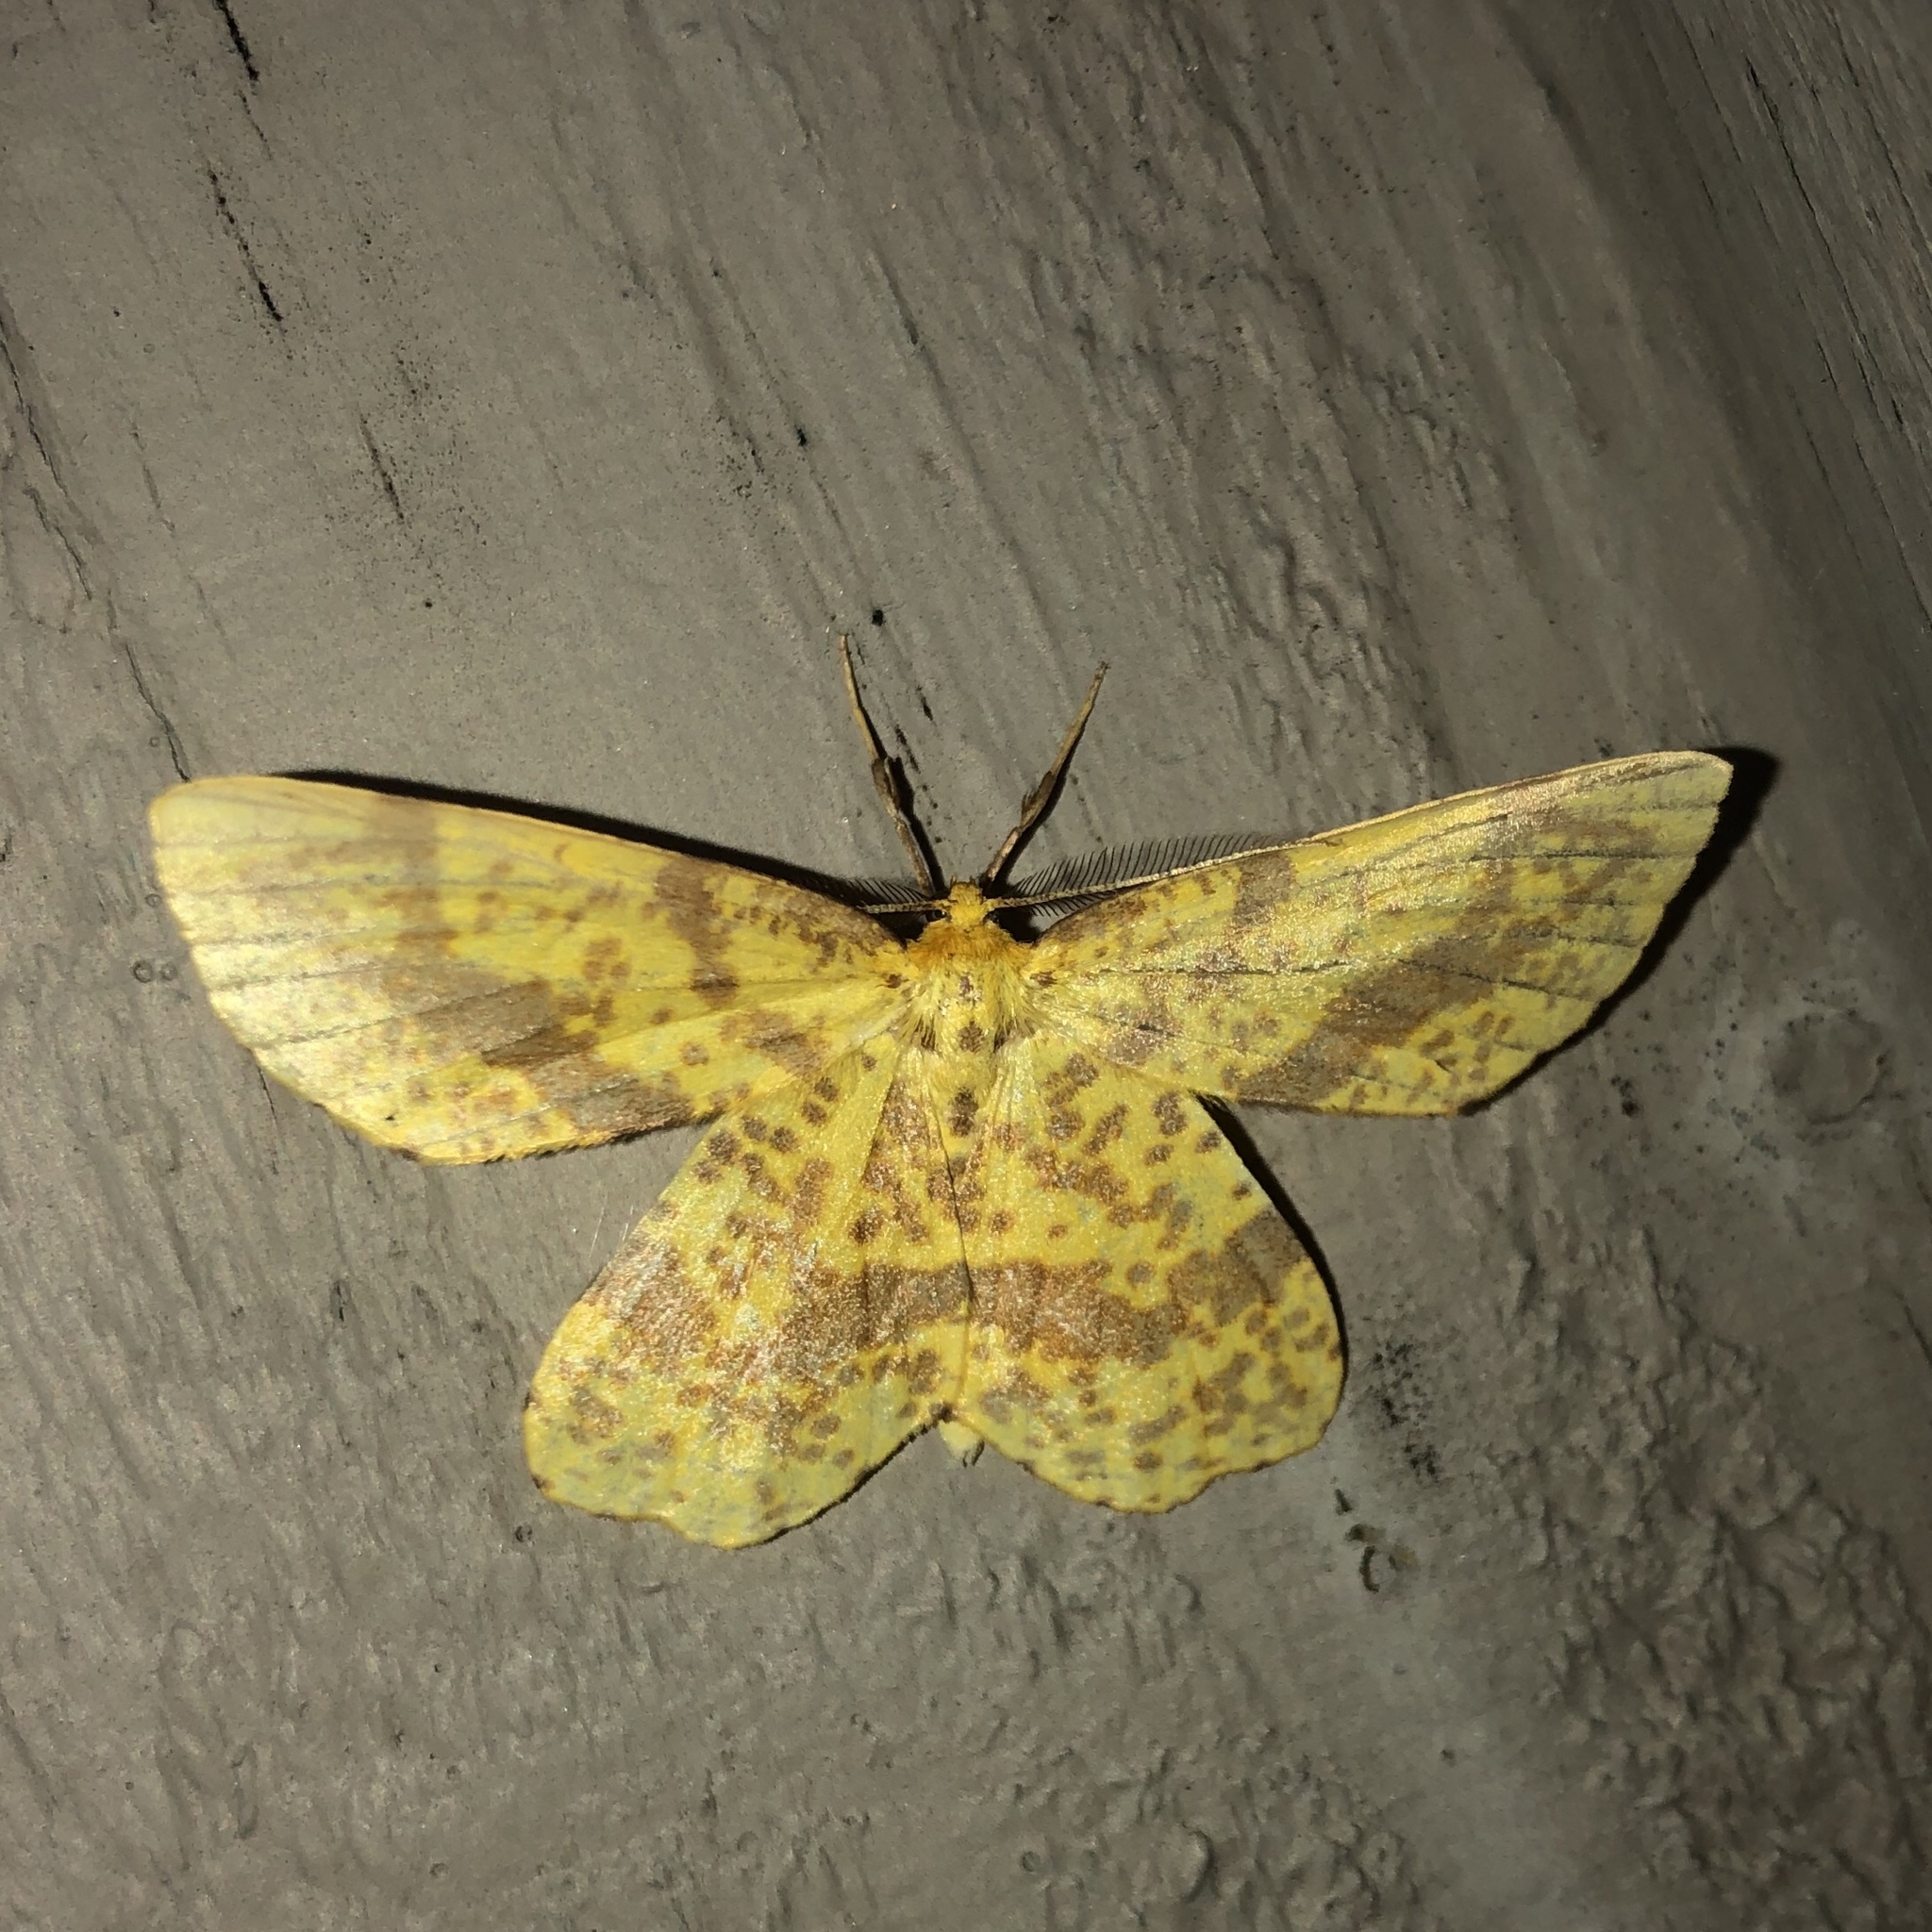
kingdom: Animalia
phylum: Arthropoda
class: Insecta
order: Lepidoptera
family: Geometridae
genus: Xanthotype
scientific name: Xanthotype
